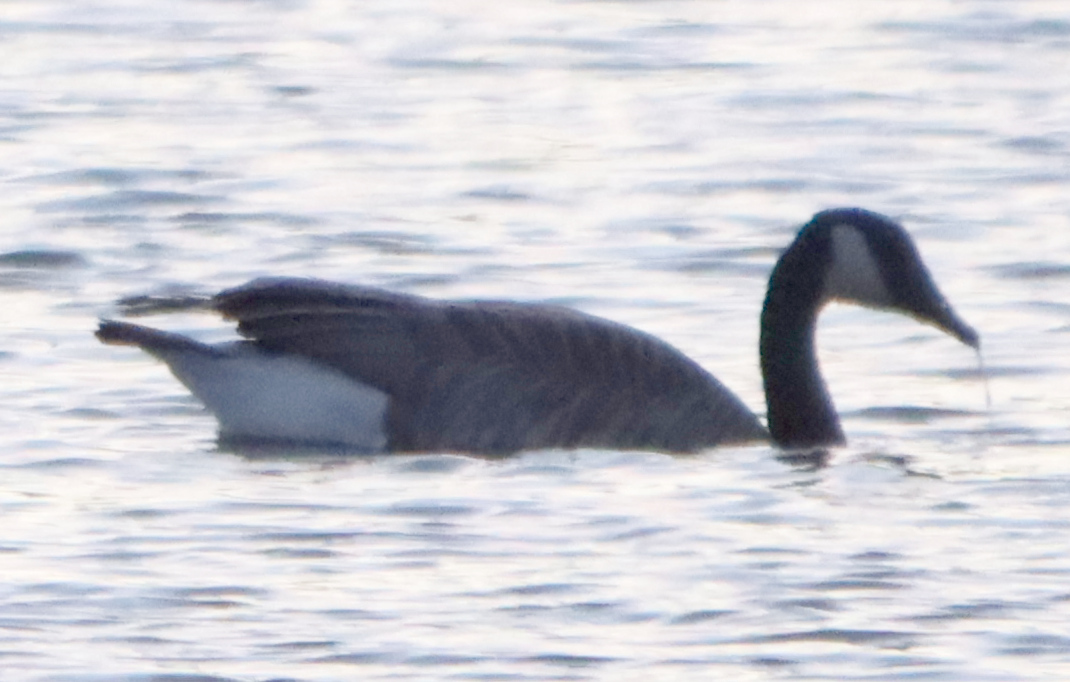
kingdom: Animalia
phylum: Chordata
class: Aves
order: Anseriformes
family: Anatidae
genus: Branta
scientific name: Branta canadensis
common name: Canada goose
